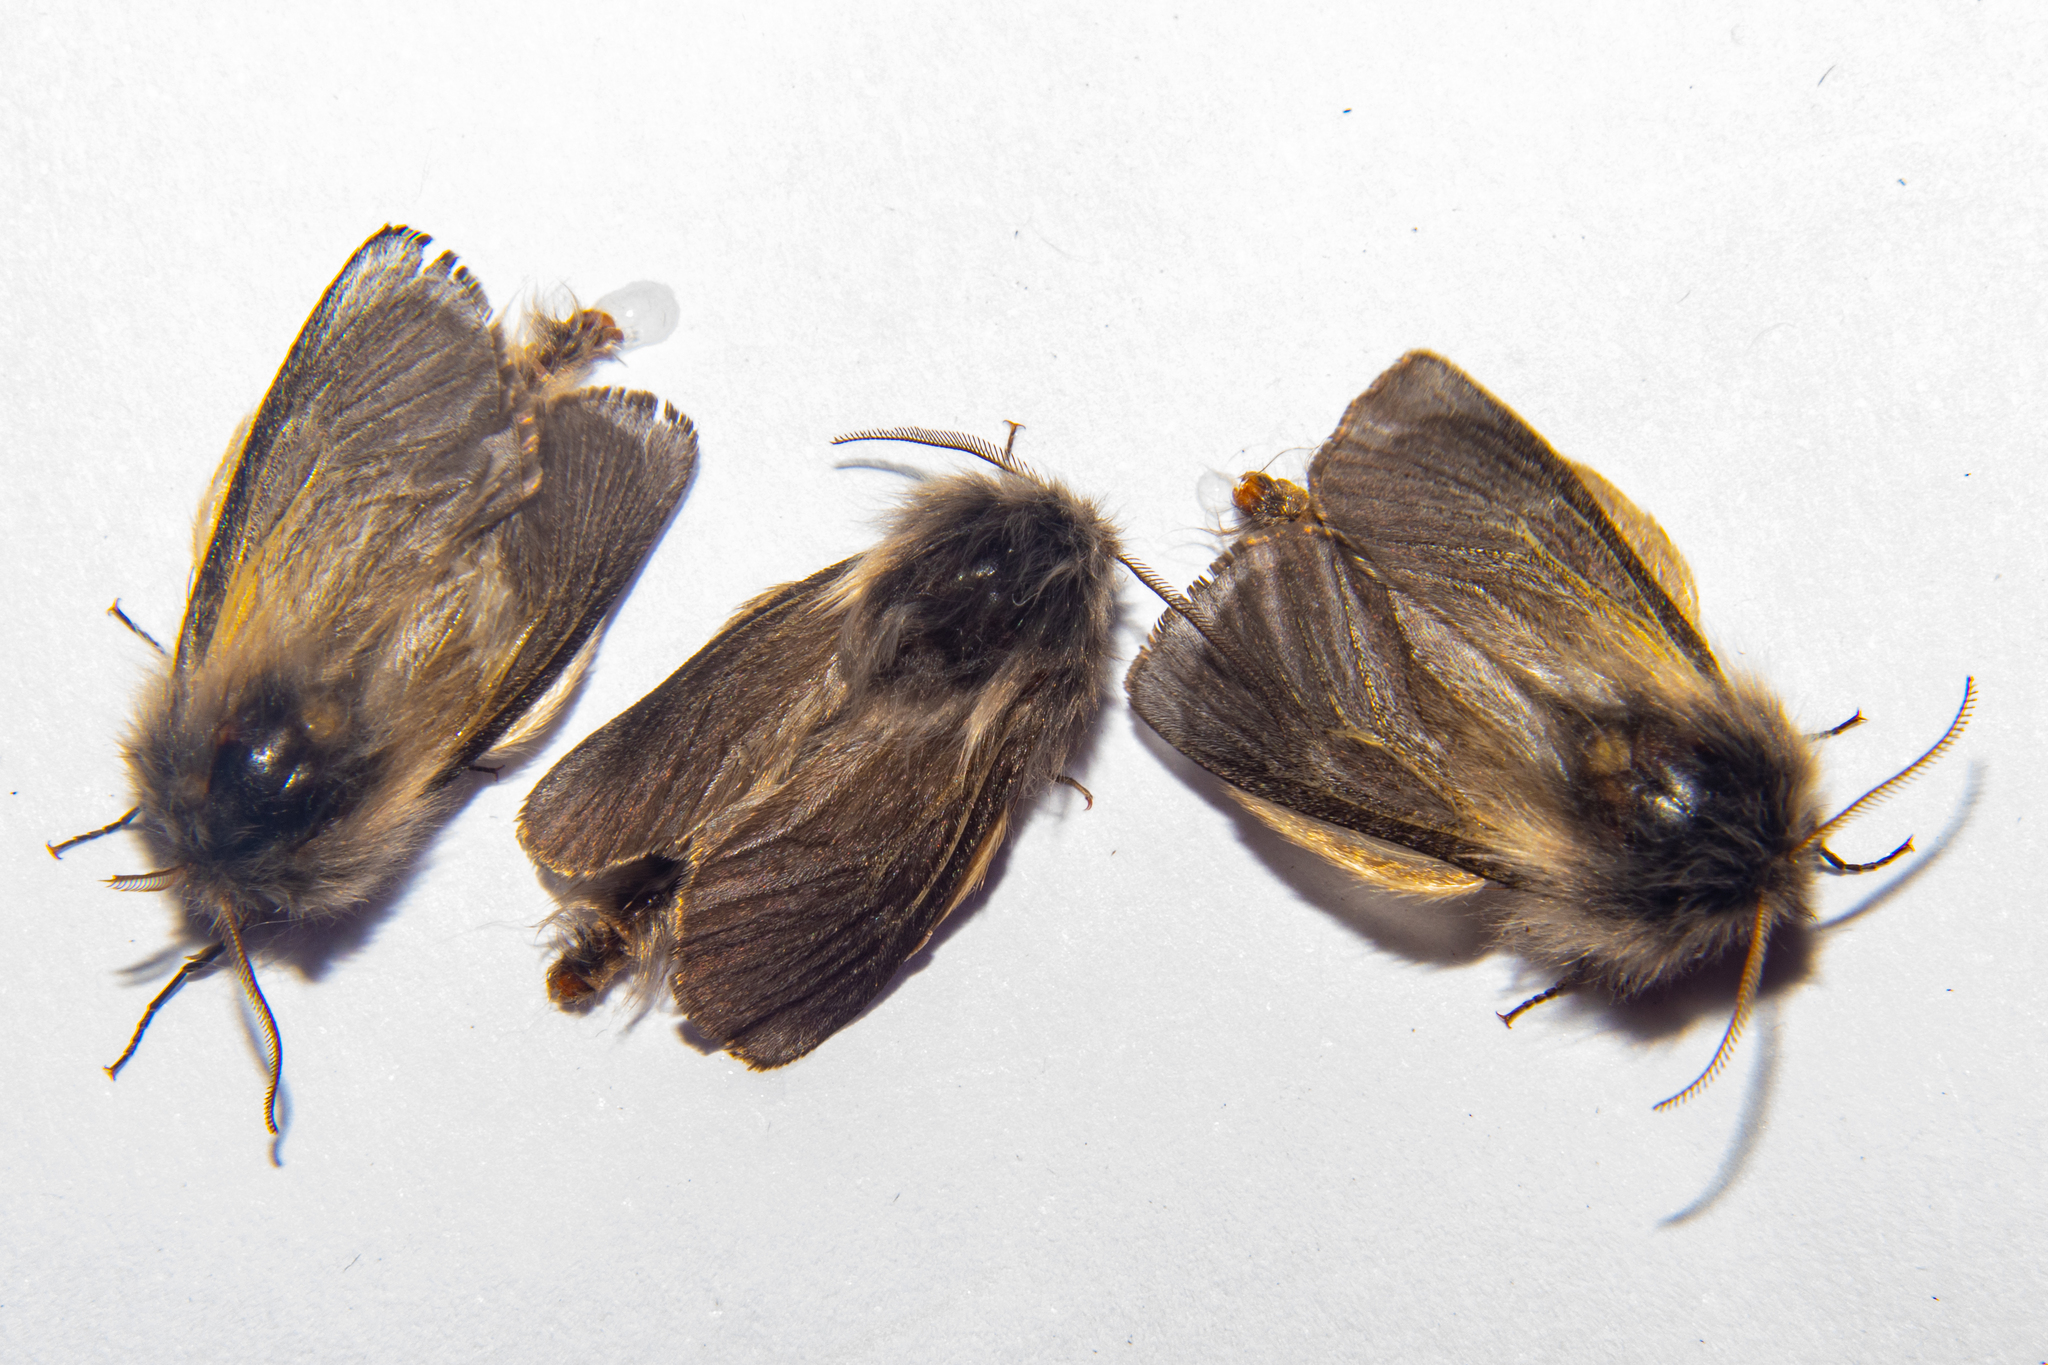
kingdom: Animalia
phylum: Arthropoda
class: Insecta
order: Lepidoptera
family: Psychidae
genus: Orophora
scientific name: Orophora unicolor
